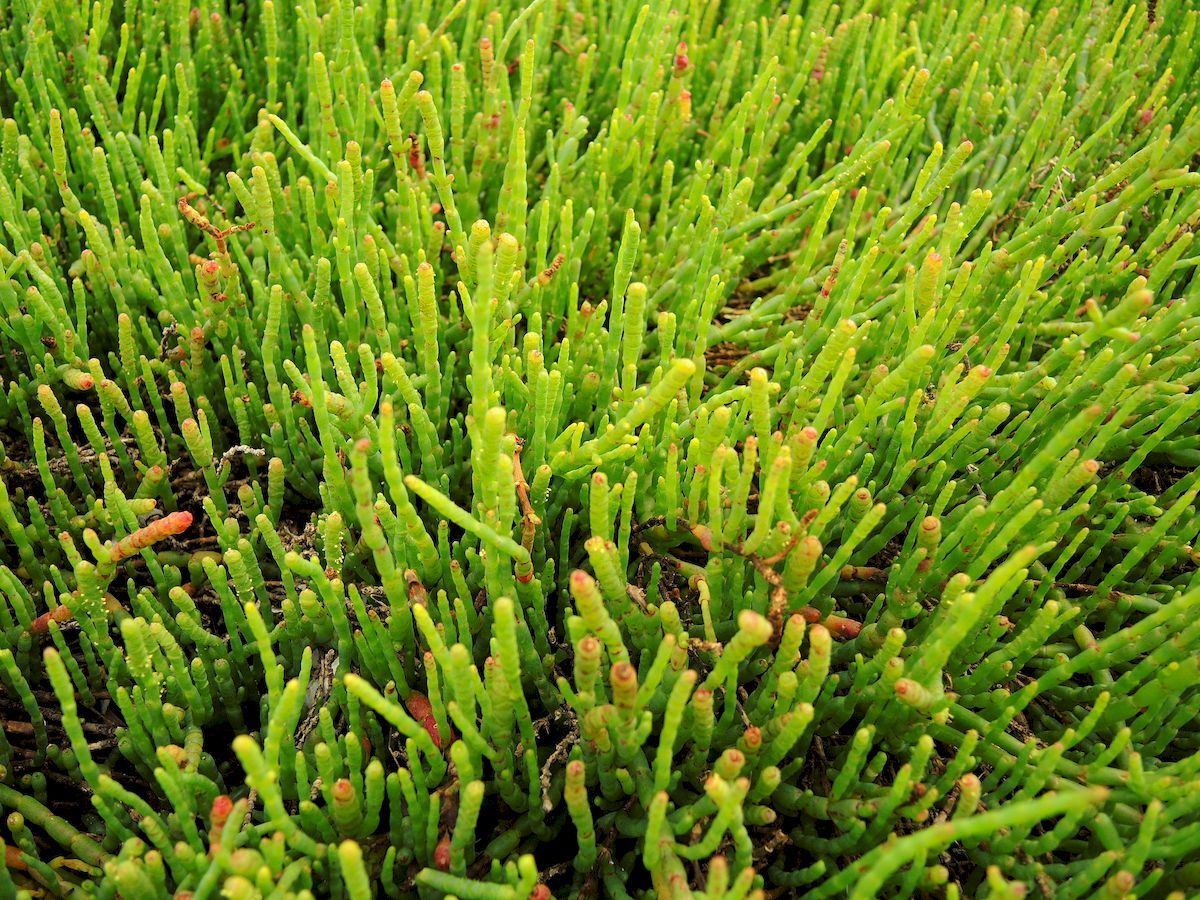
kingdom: Plantae
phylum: Tracheophyta
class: Magnoliopsida
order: Caryophyllales
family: Amaranthaceae
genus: Salicornia
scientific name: Salicornia quinqueflora
